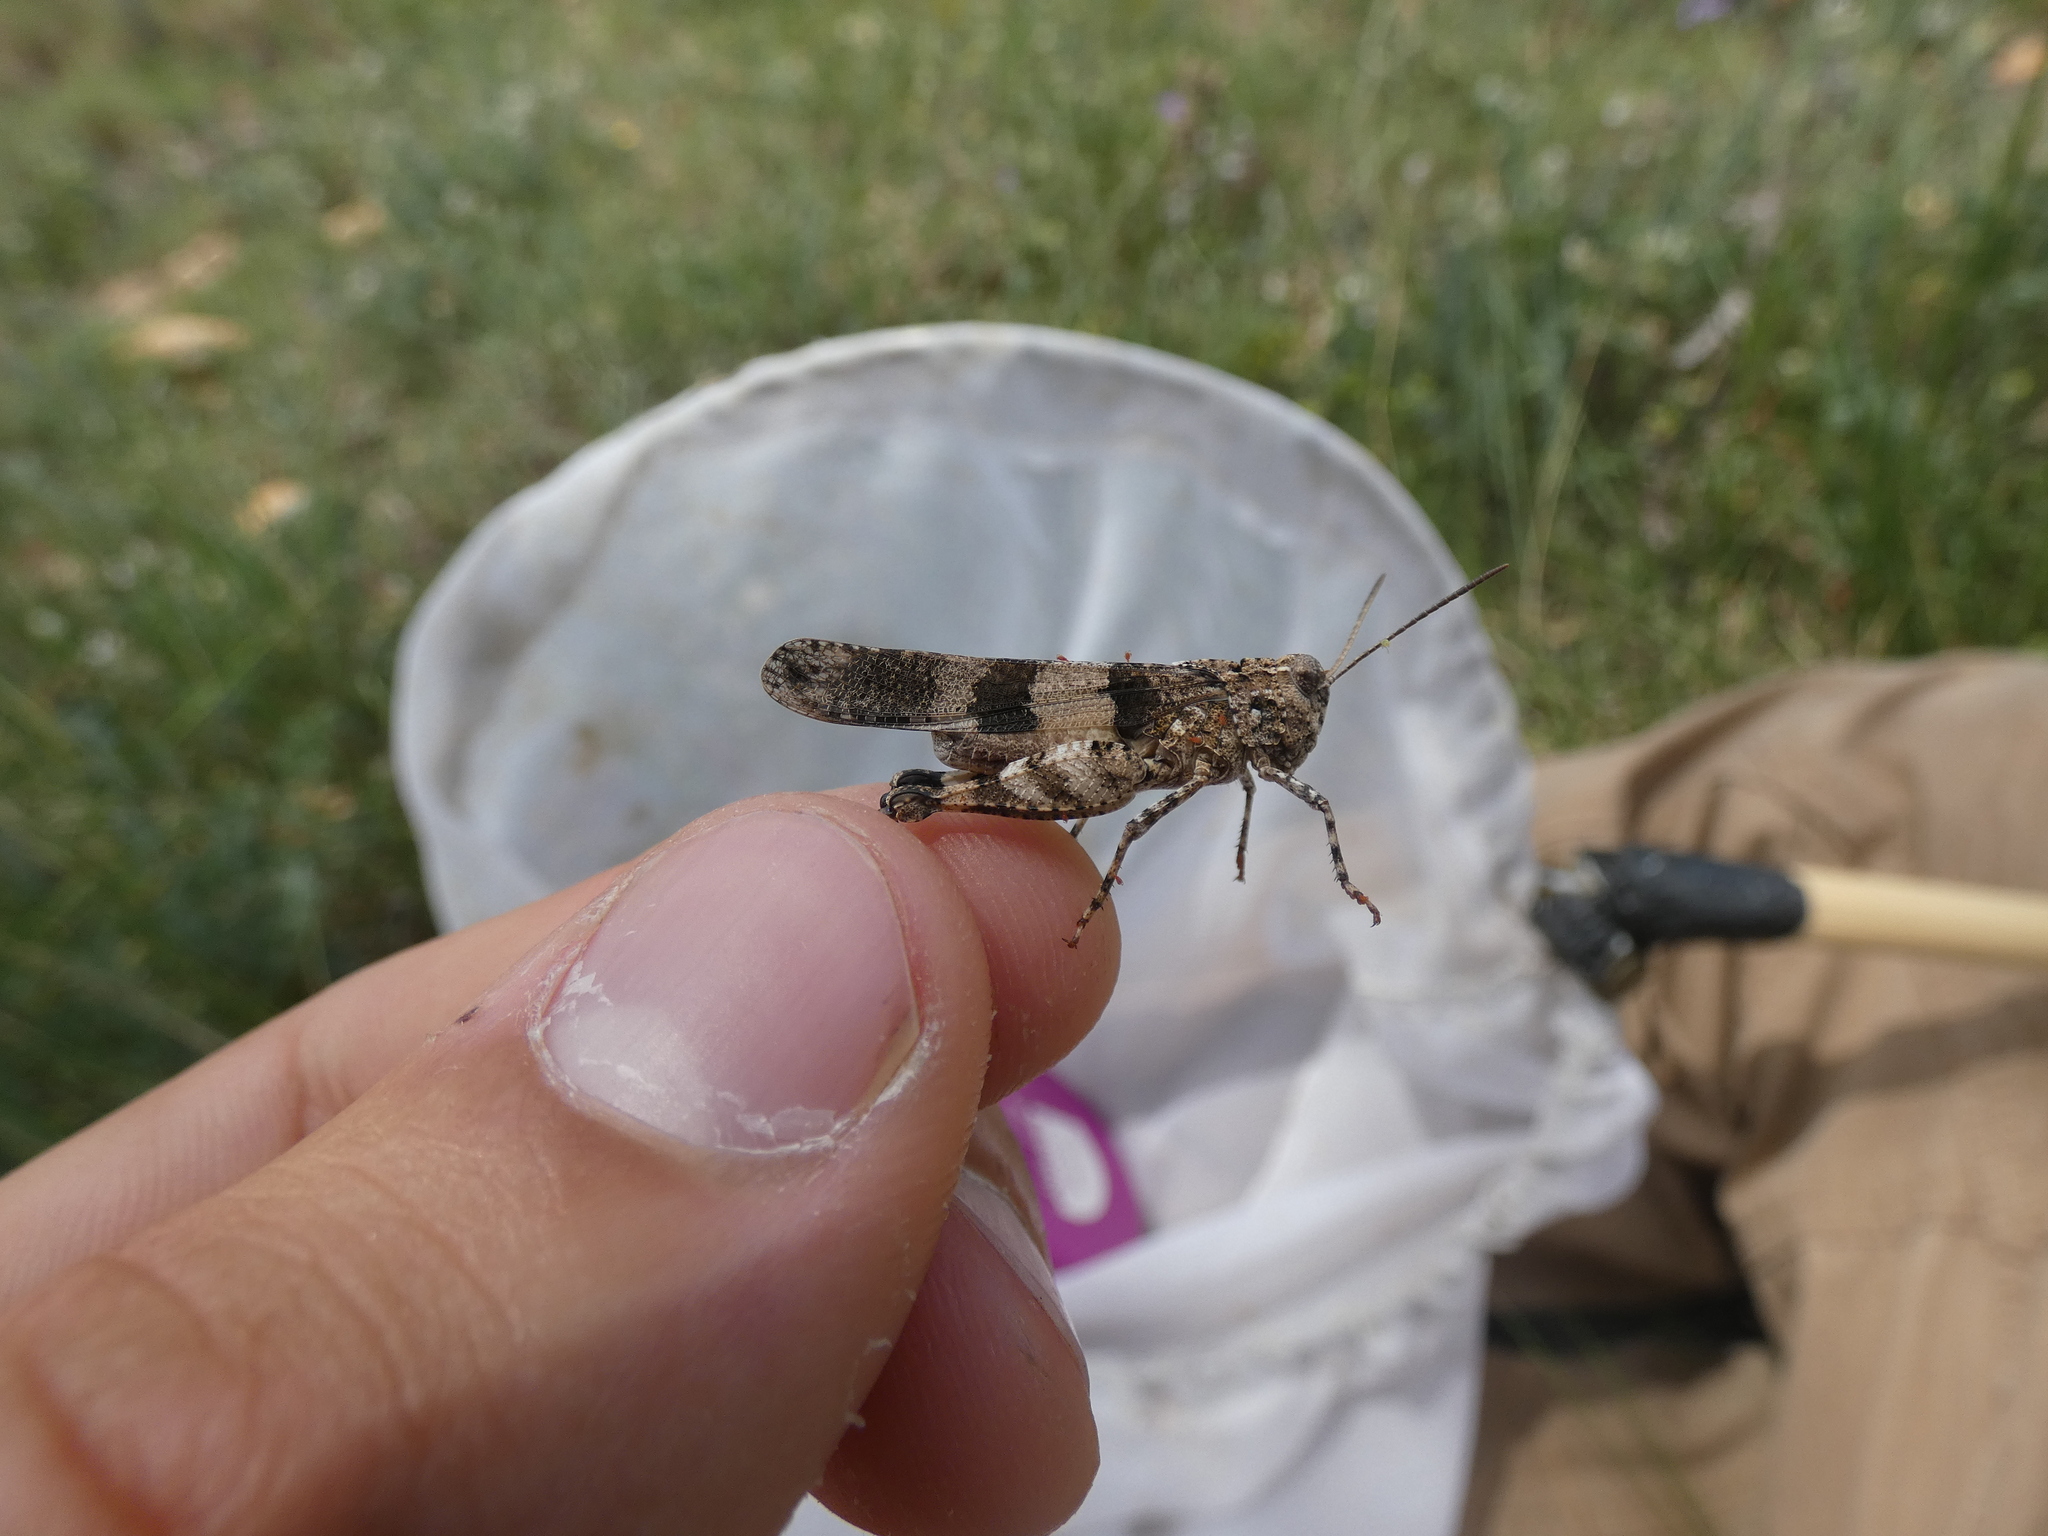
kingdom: Animalia
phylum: Arthropoda
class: Insecta
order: Orthoptera
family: Acrididae
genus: Oedipoda
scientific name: Oedipoda caerulescens
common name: Blue-winged grasshopper
